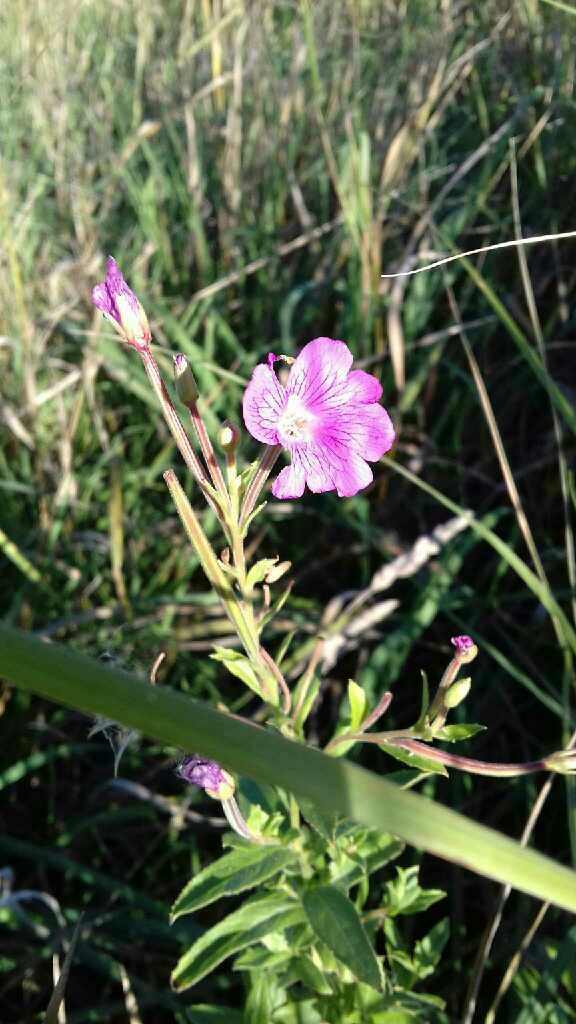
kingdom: Plantae
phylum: Tracheophyta
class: Magnoliopsida
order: Myrtales
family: Onagraceae
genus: Epilobium
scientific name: Epilobium hirsutum
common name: Great willowherb
